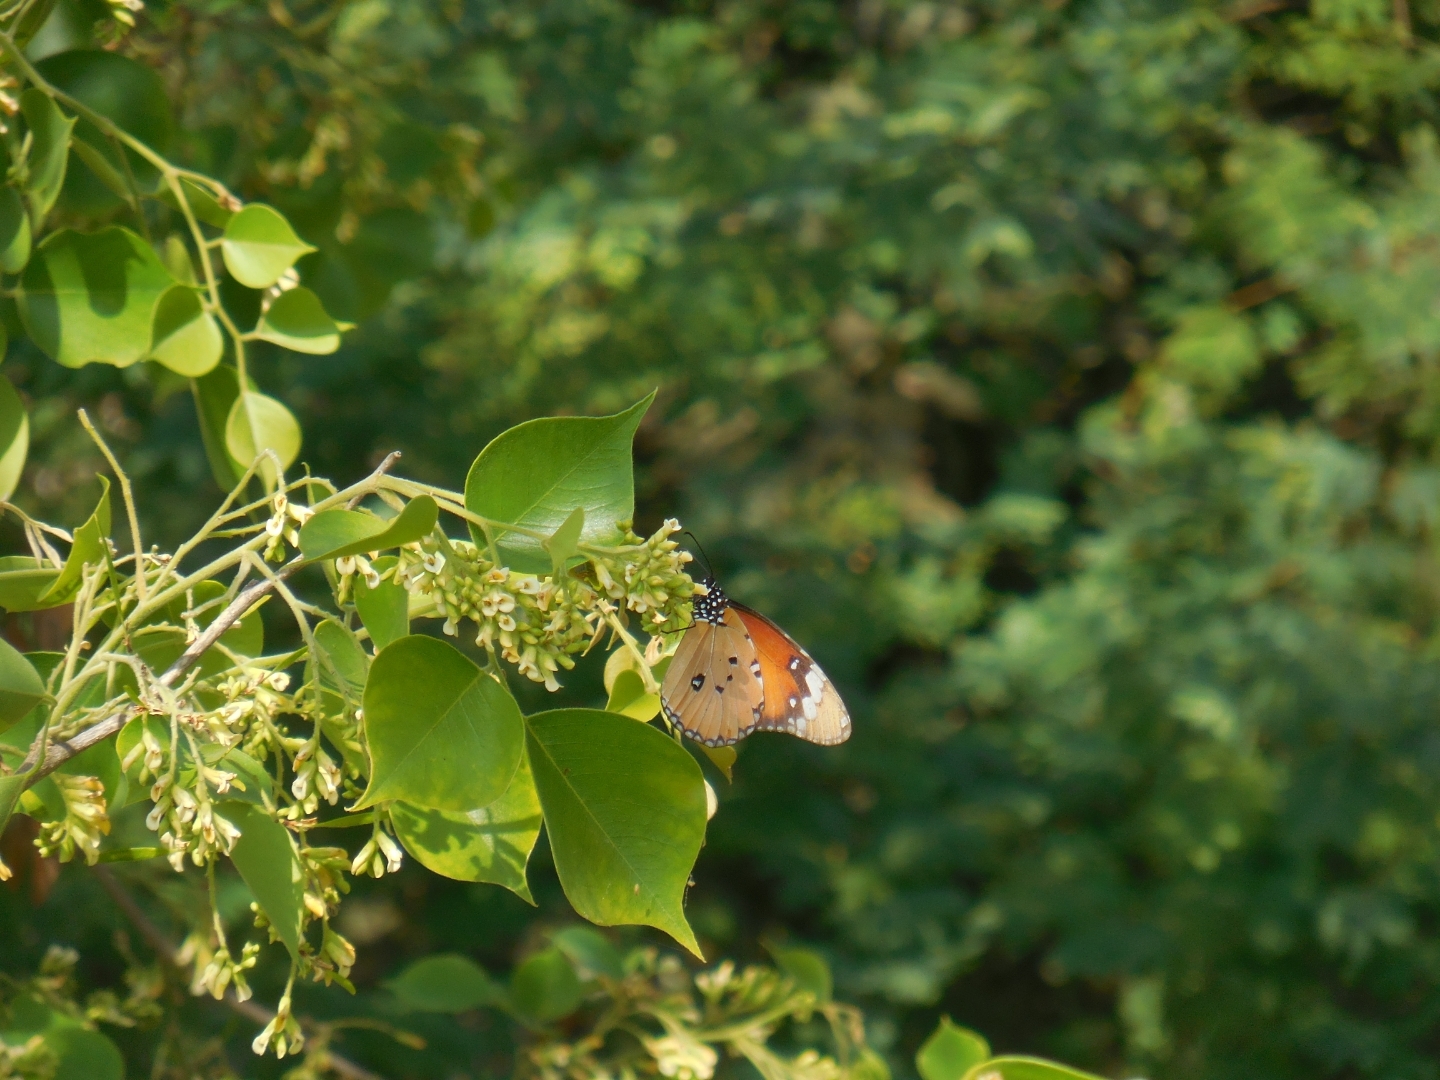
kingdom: Animalia
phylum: Arthropoda
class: Insecta
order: Lepidoptera
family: Nymphalidae
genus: Danaus
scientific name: Danaus chrysippus
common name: Plain tiger
